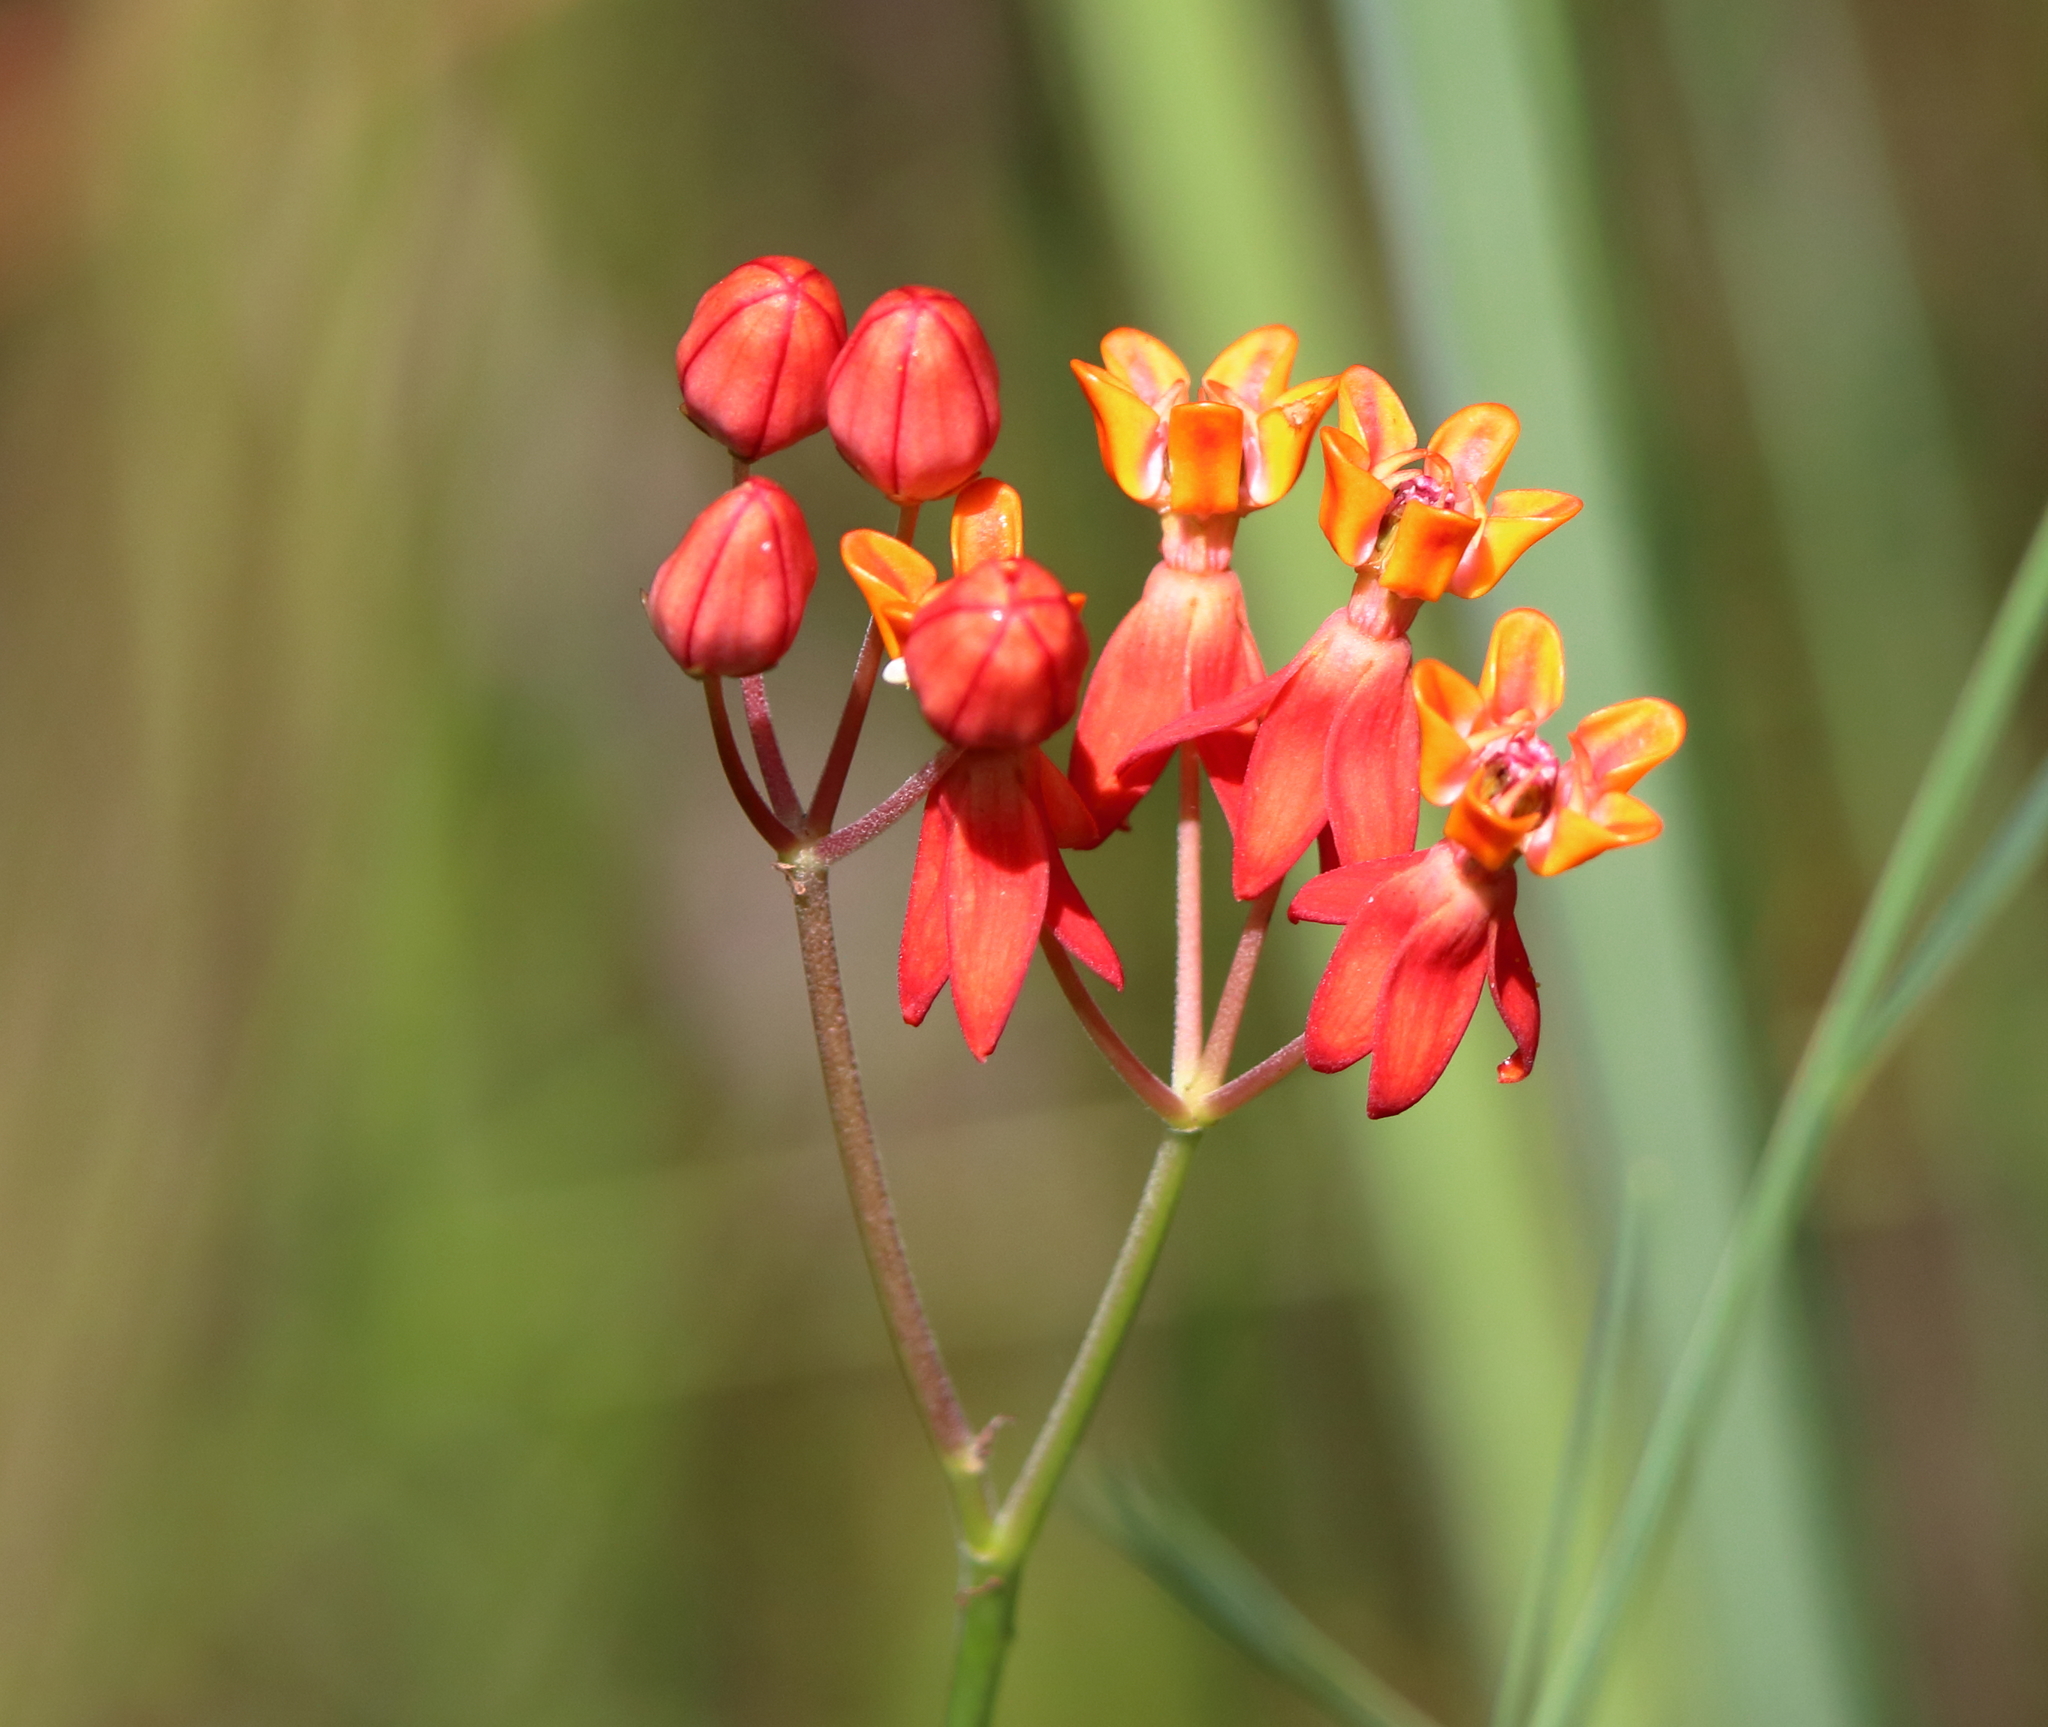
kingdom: Plantae
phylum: Tracheophyta
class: Magnoliopsida
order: Gentianales
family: Apocynaceae
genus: Asclepias
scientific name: Asclepias lanceolata
